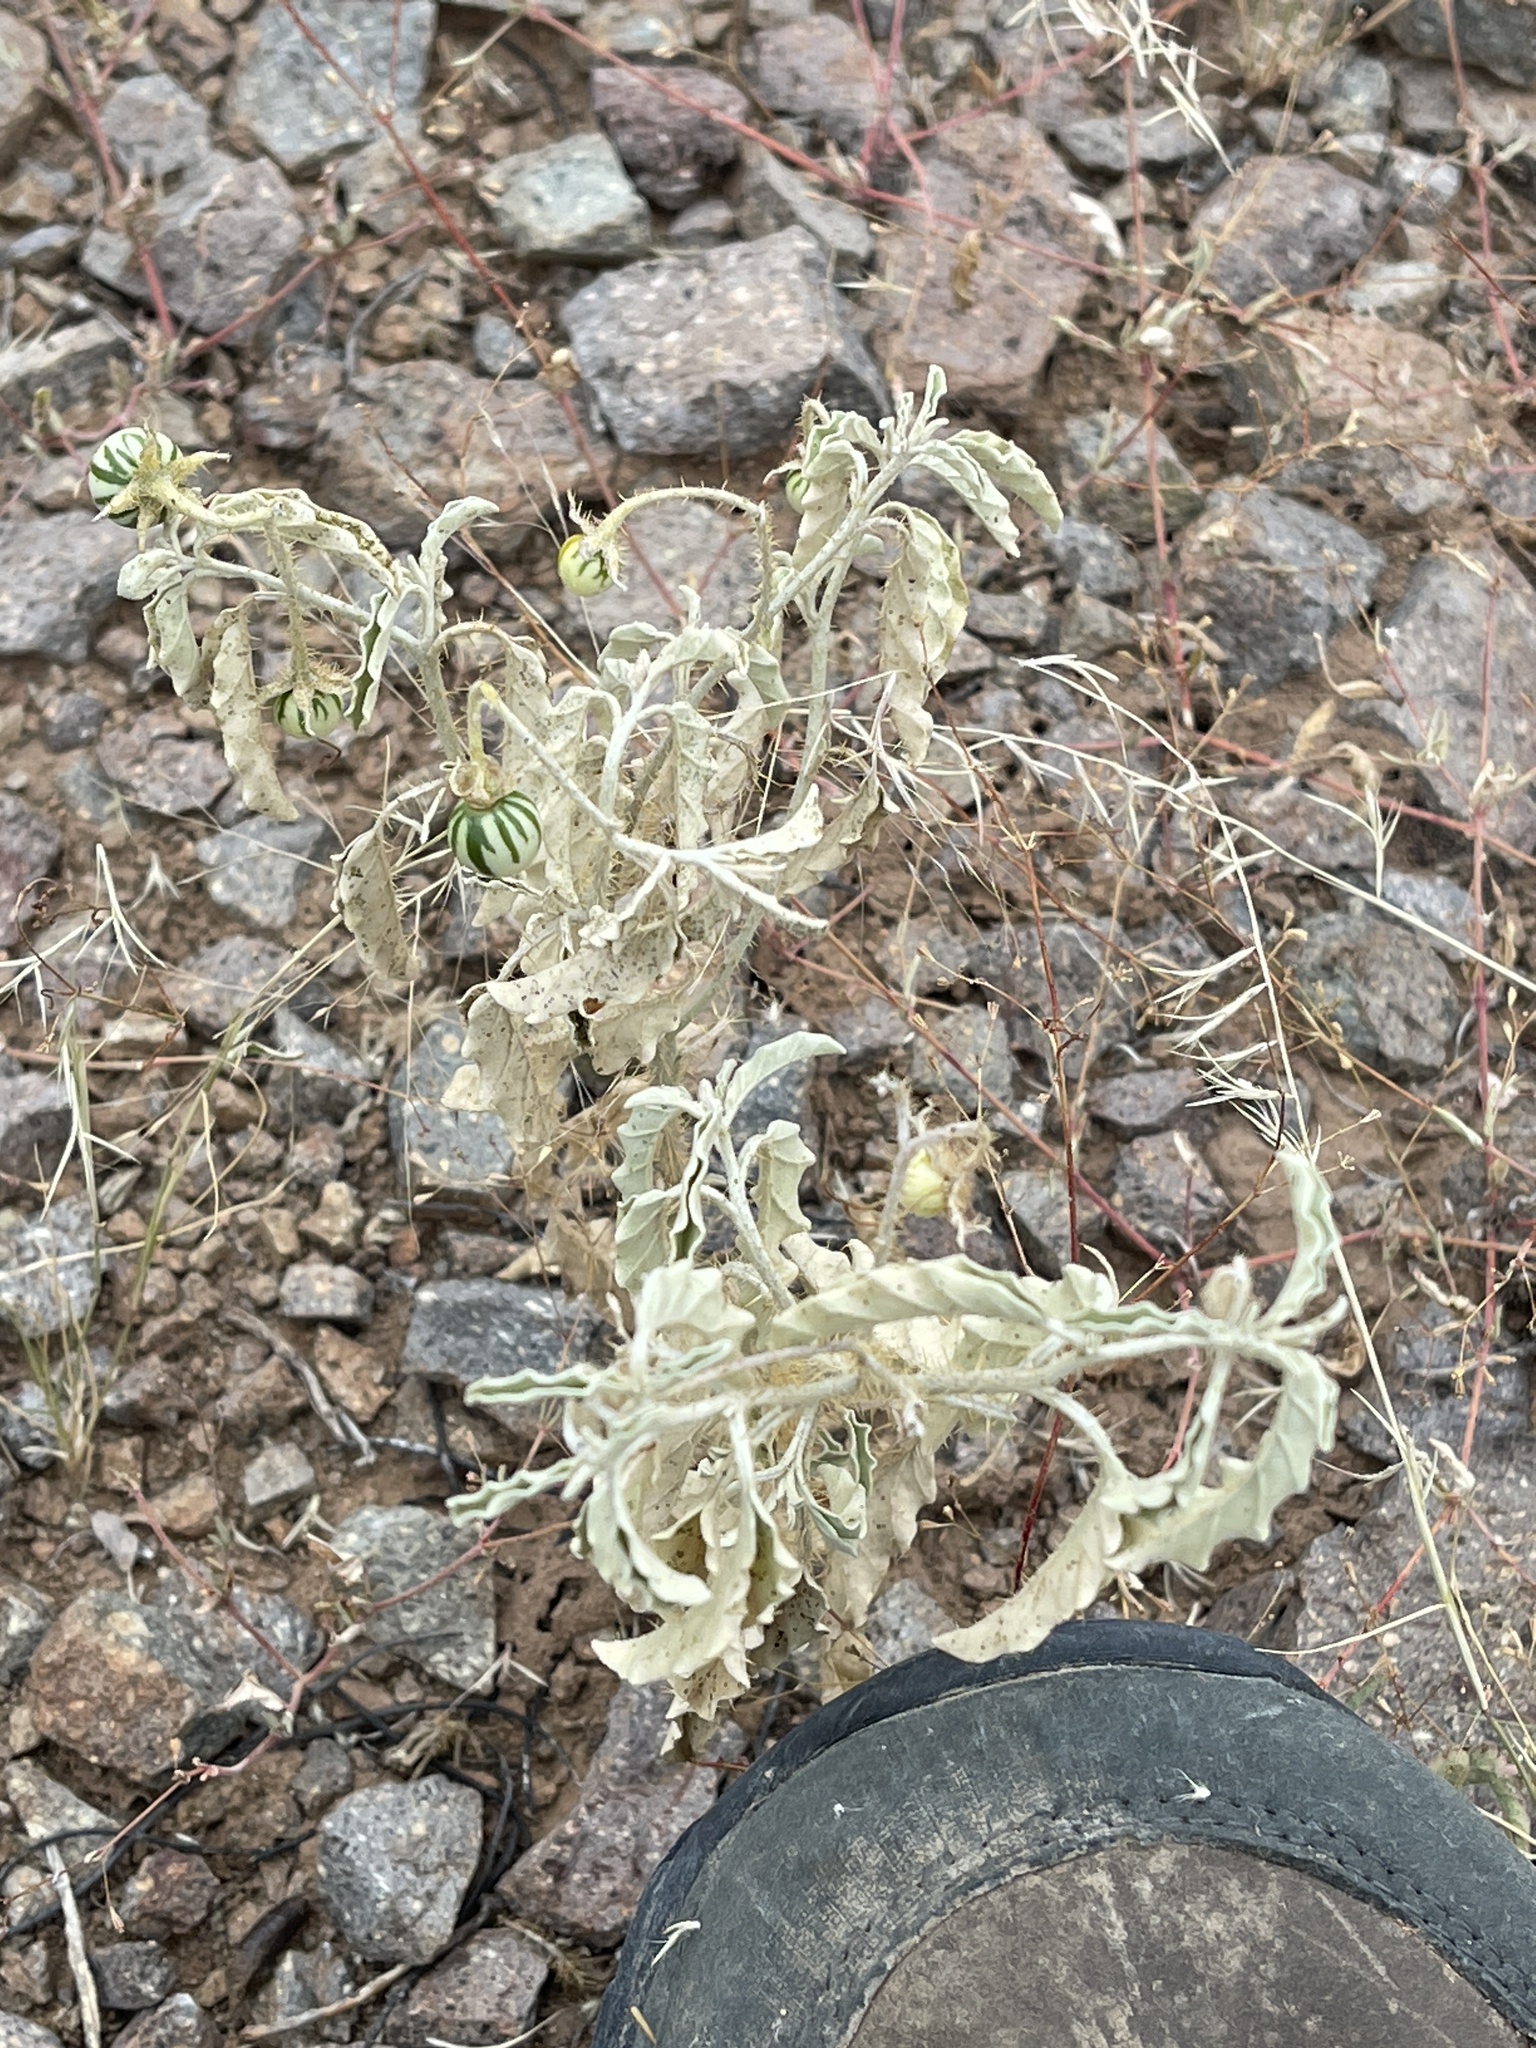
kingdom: Plantae
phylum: Tracheophyta
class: Magnoliopsida
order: Solanales
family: Solanaceae
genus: Solanum
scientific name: Solanum elaeagnifolium
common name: Silverleaf nightshade
